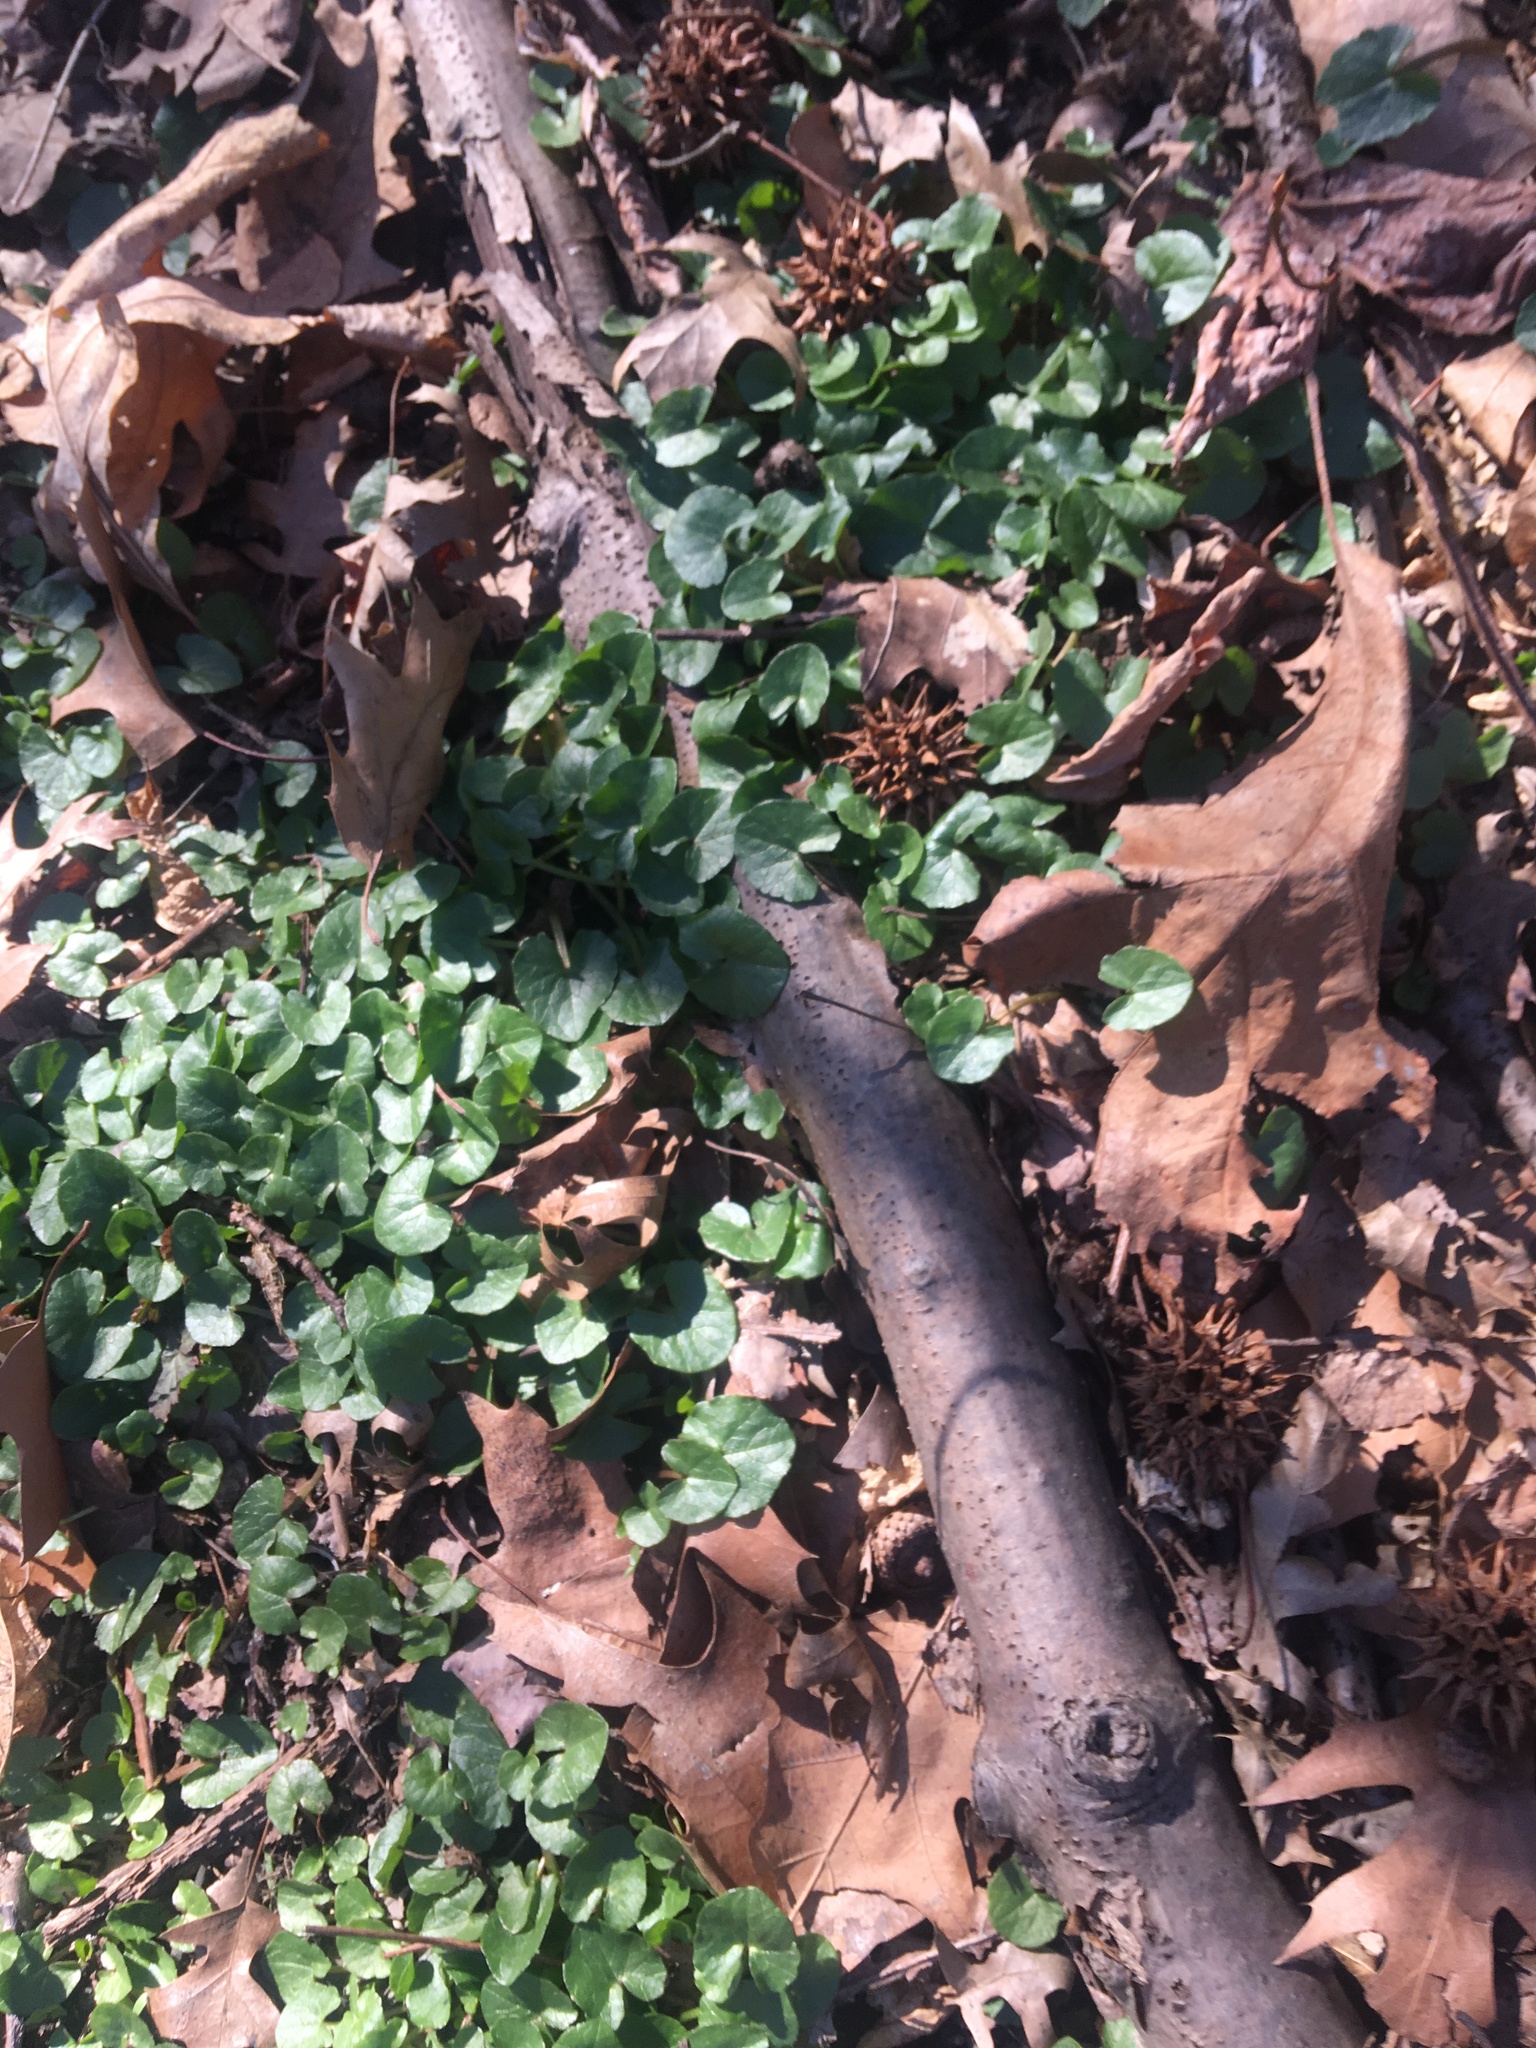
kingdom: Plantae
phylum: Tracheophyta
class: Magnoliopsida
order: Ranunculales
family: Ranunculaceae
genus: Ficaria
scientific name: Ficaria verna
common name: Lesser celandine
